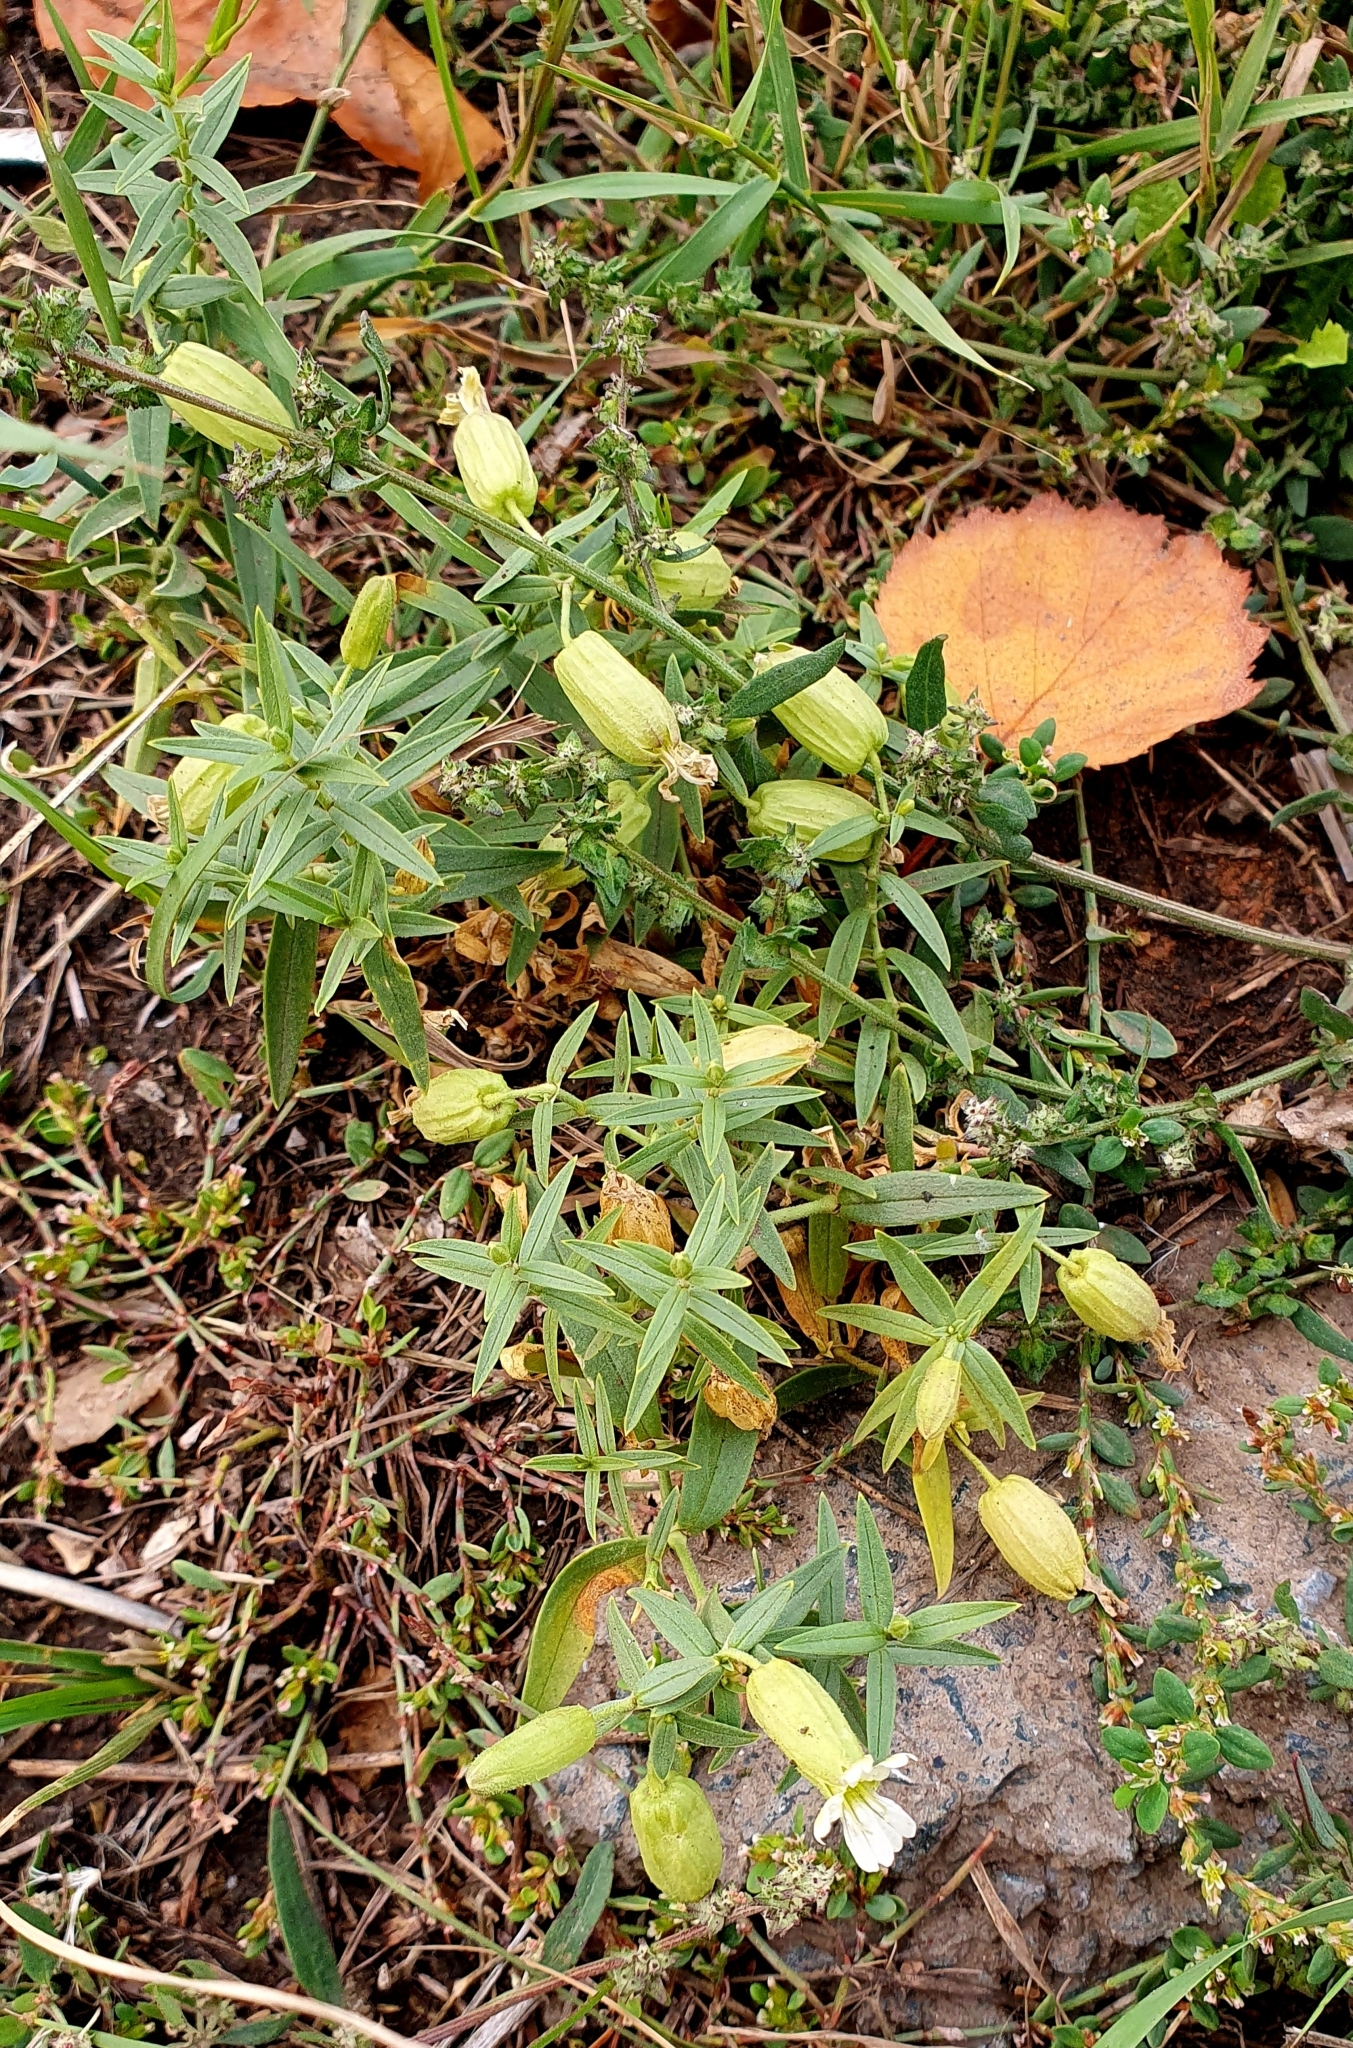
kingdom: Plantae
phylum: Tracheophyta
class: Magnoliopsida
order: Caryophyllales
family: Caryophyllaceae
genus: Silene
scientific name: Silene procumbens
